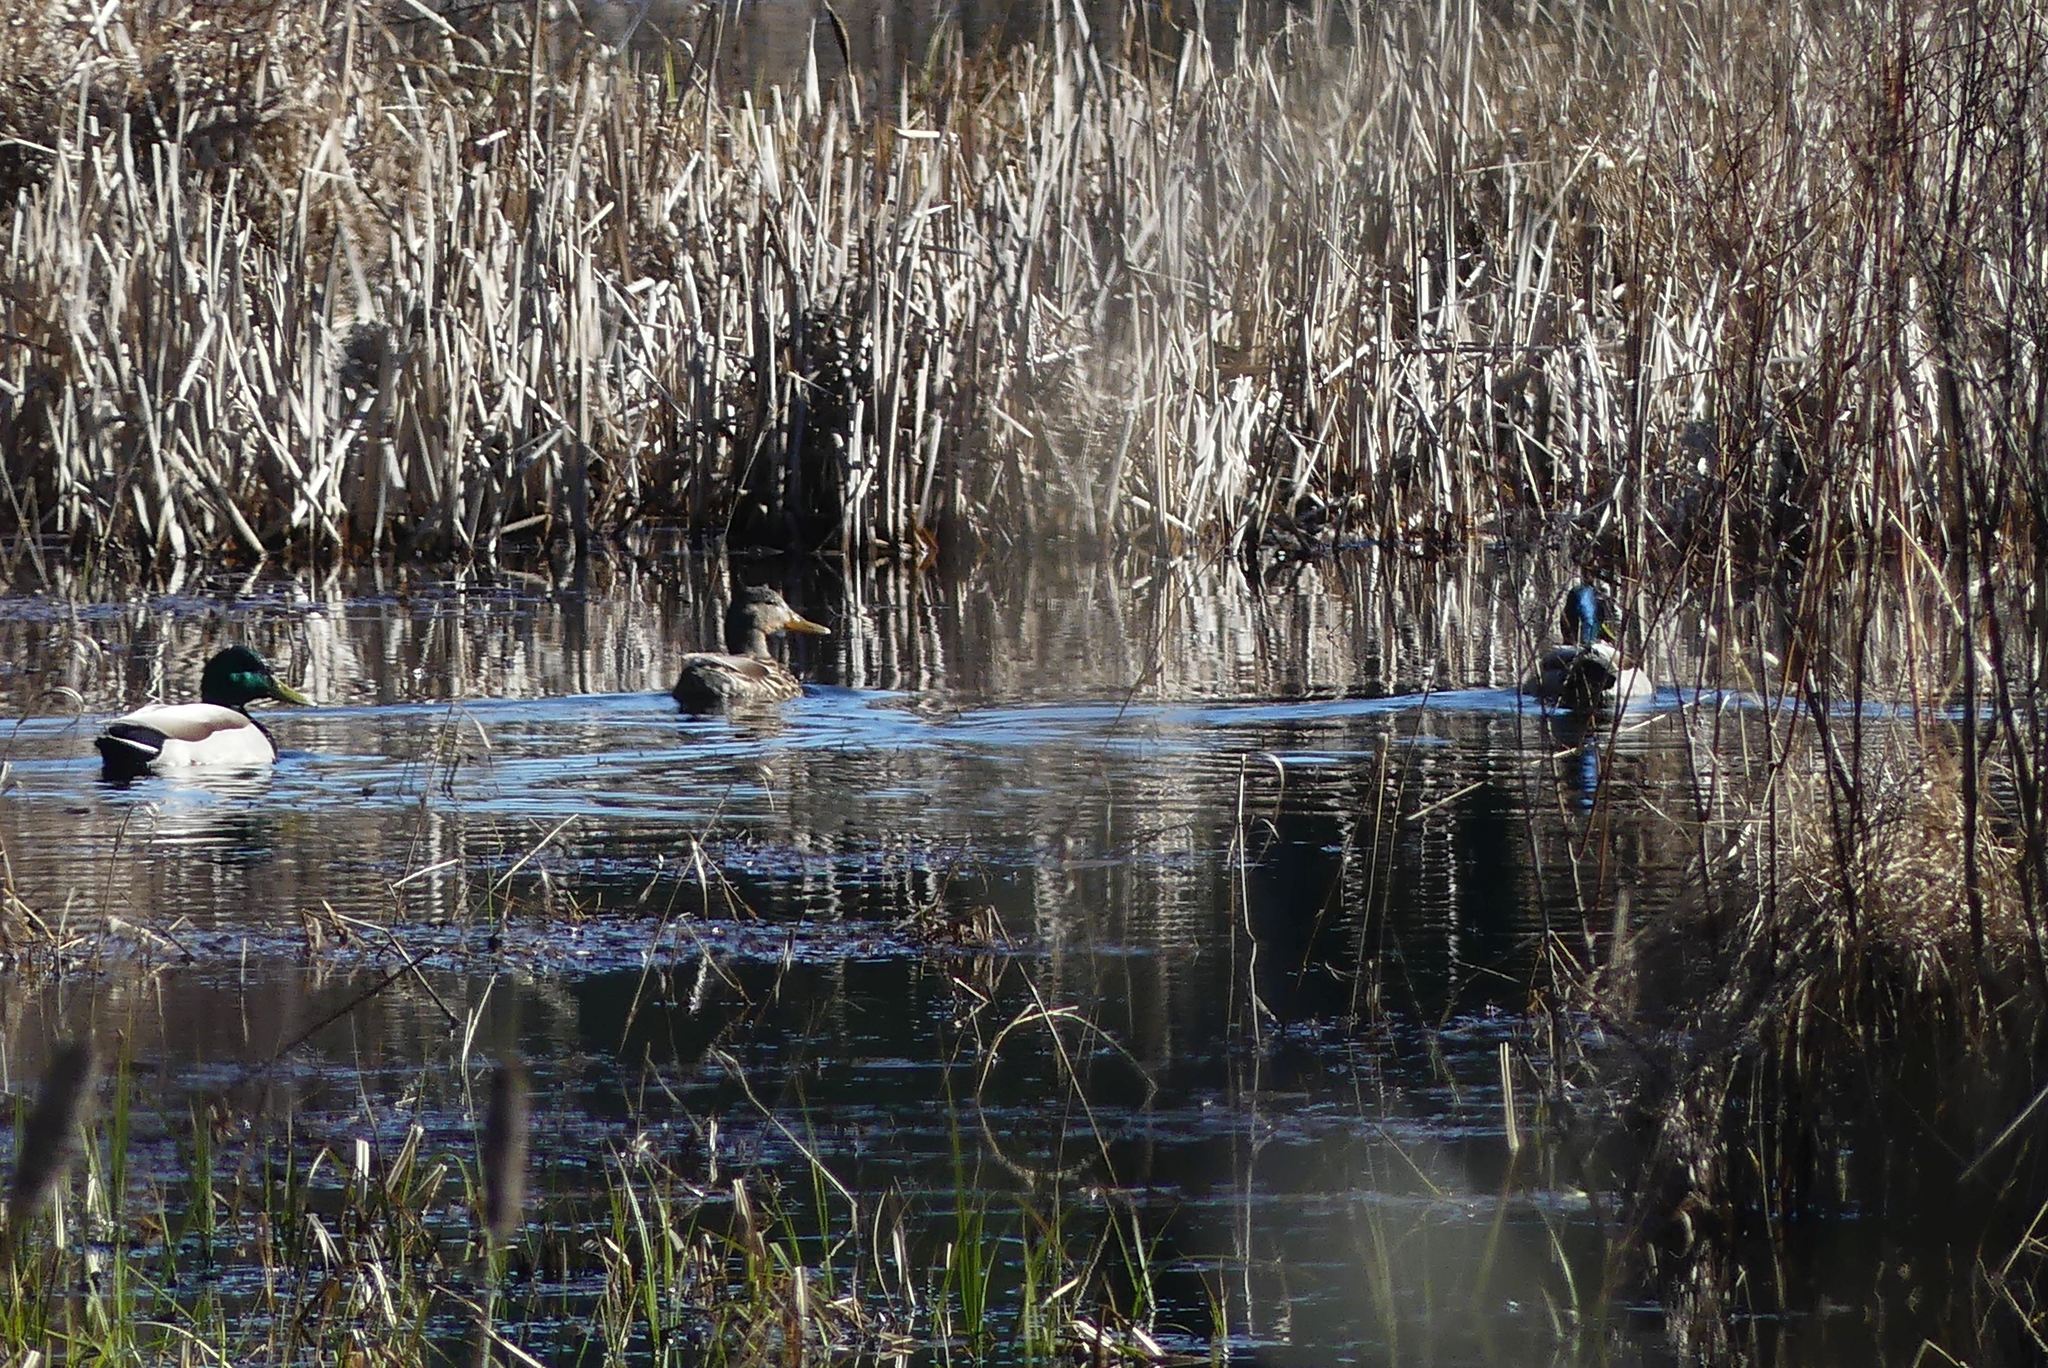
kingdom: Animalia
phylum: Chordata
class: Aves
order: Anseriformes
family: Anatidae
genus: Anas
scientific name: Anas platyrhynchos
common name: Mallard
